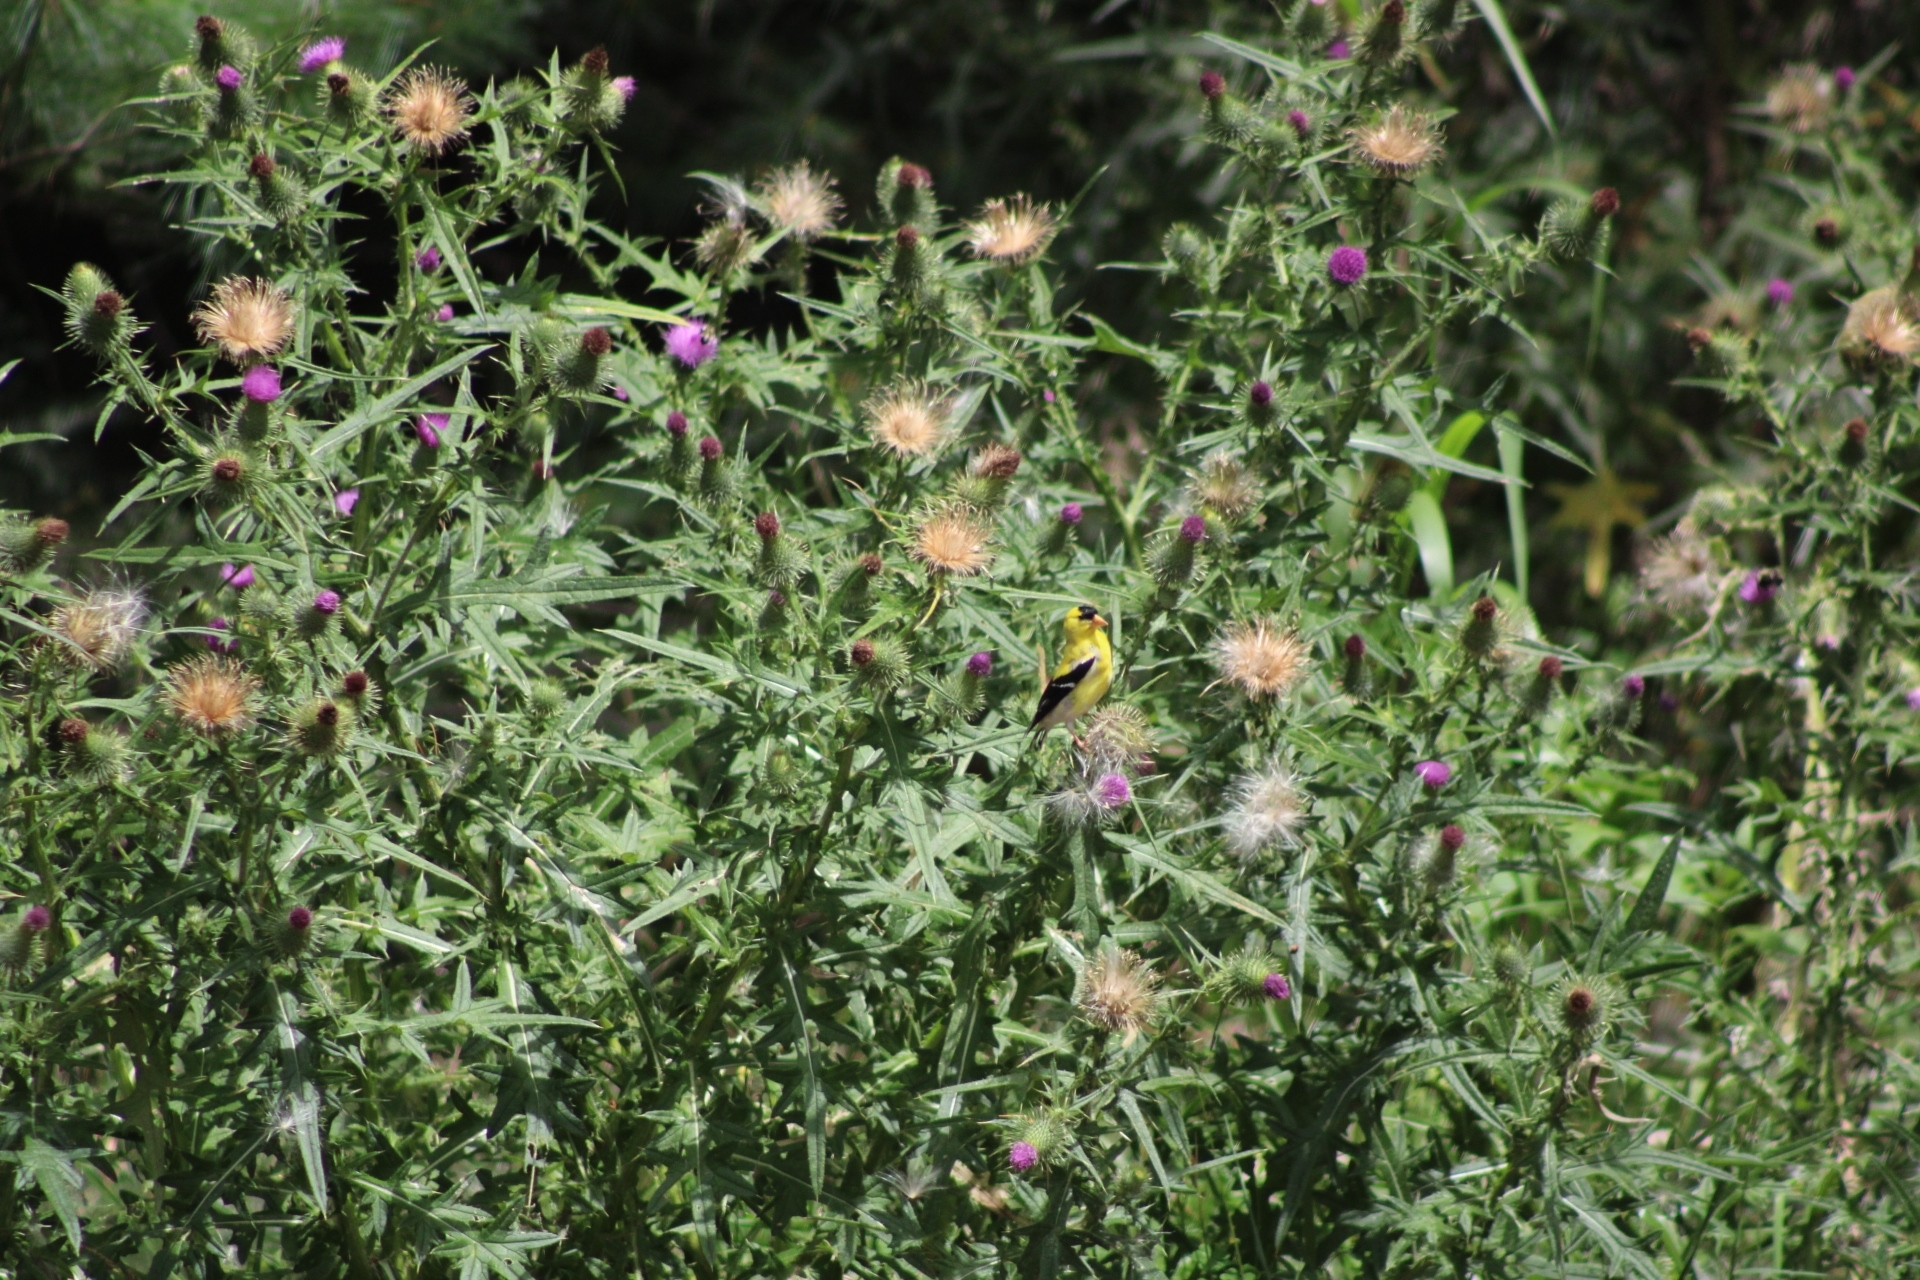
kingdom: Animalia
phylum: Chordata
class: Aves
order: Passeriformes
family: Fringillidae
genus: Spinus
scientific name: Spinus tristis
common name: American goldfinch
